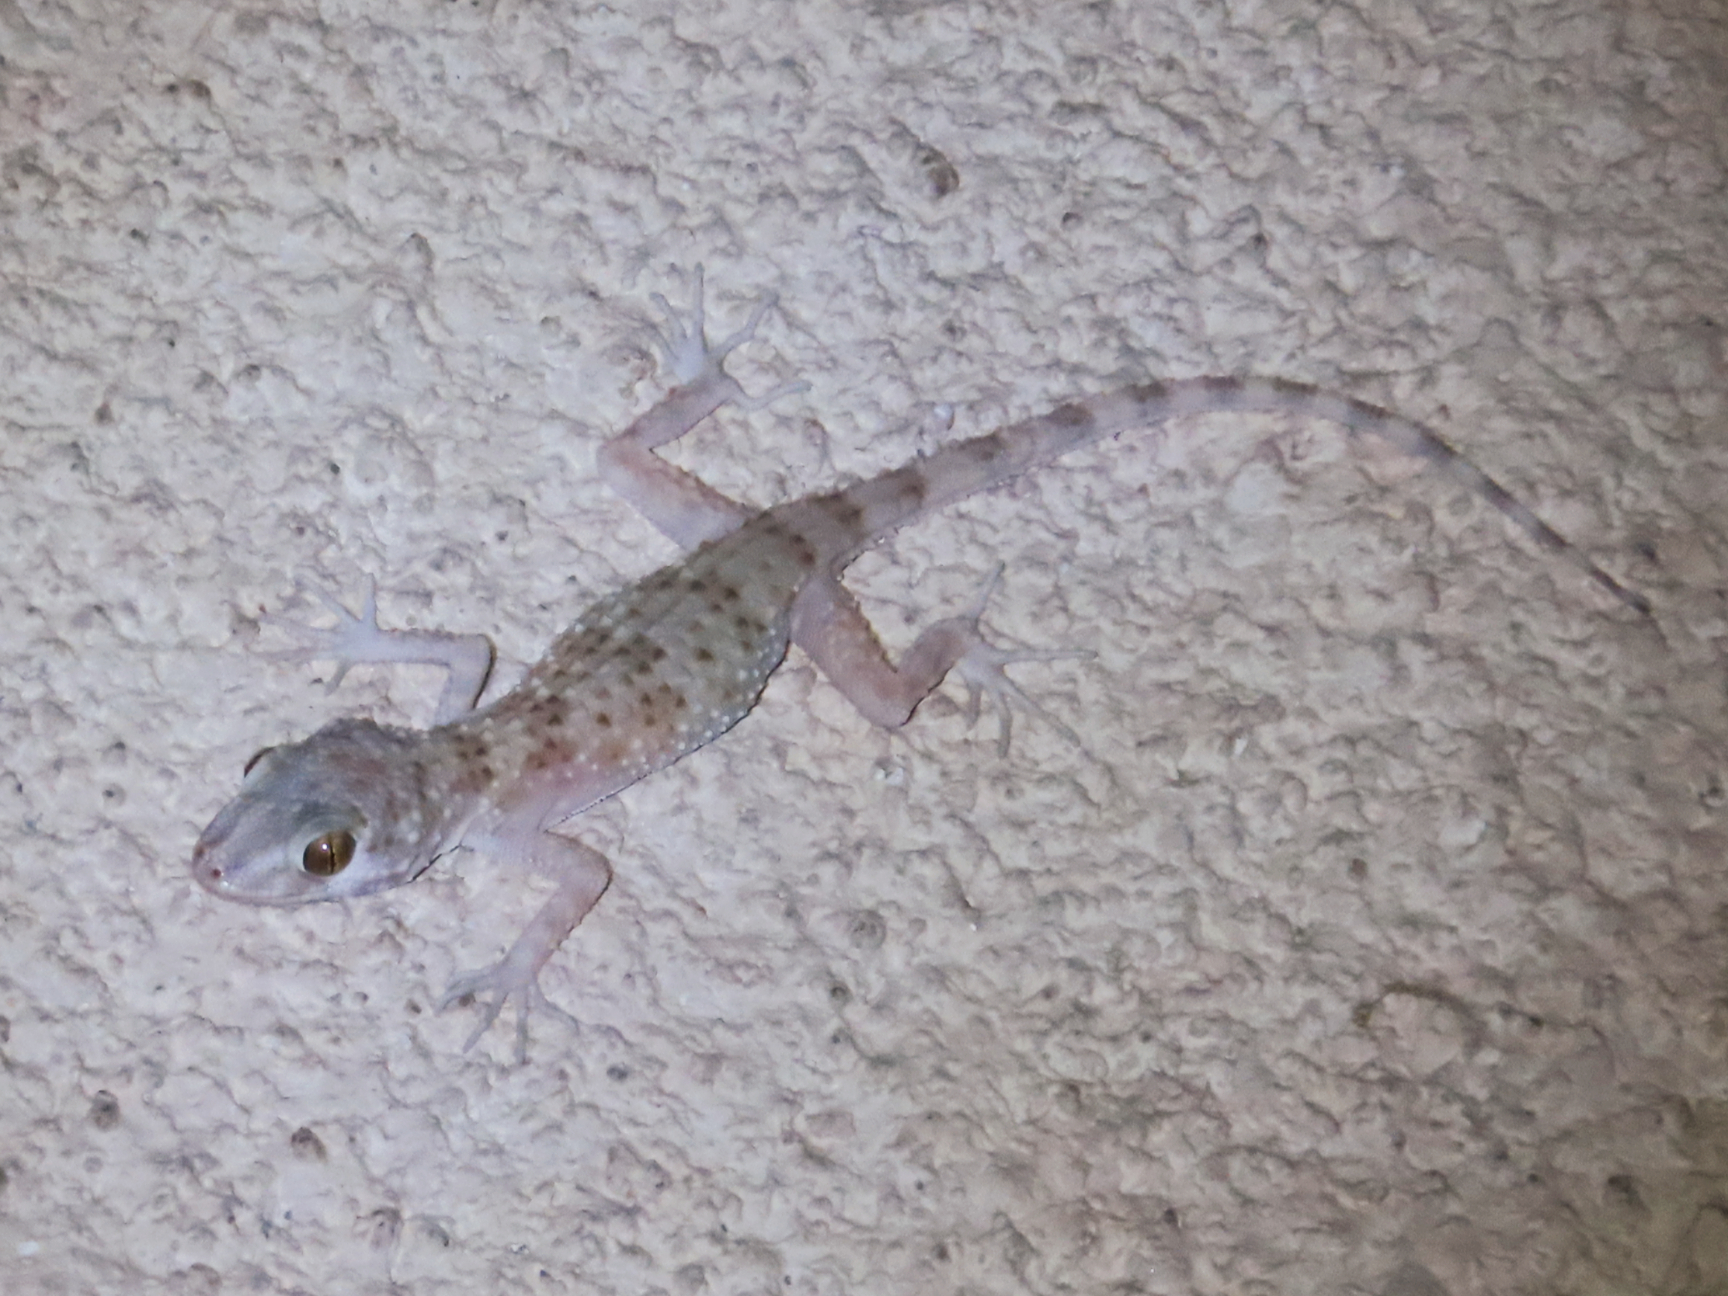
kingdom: Animalia
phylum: Chordata
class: Squamata
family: Gekkonidae
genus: Tenuidactylus
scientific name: Tenuidactylus caspius
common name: Caspian bent-toed gecko
